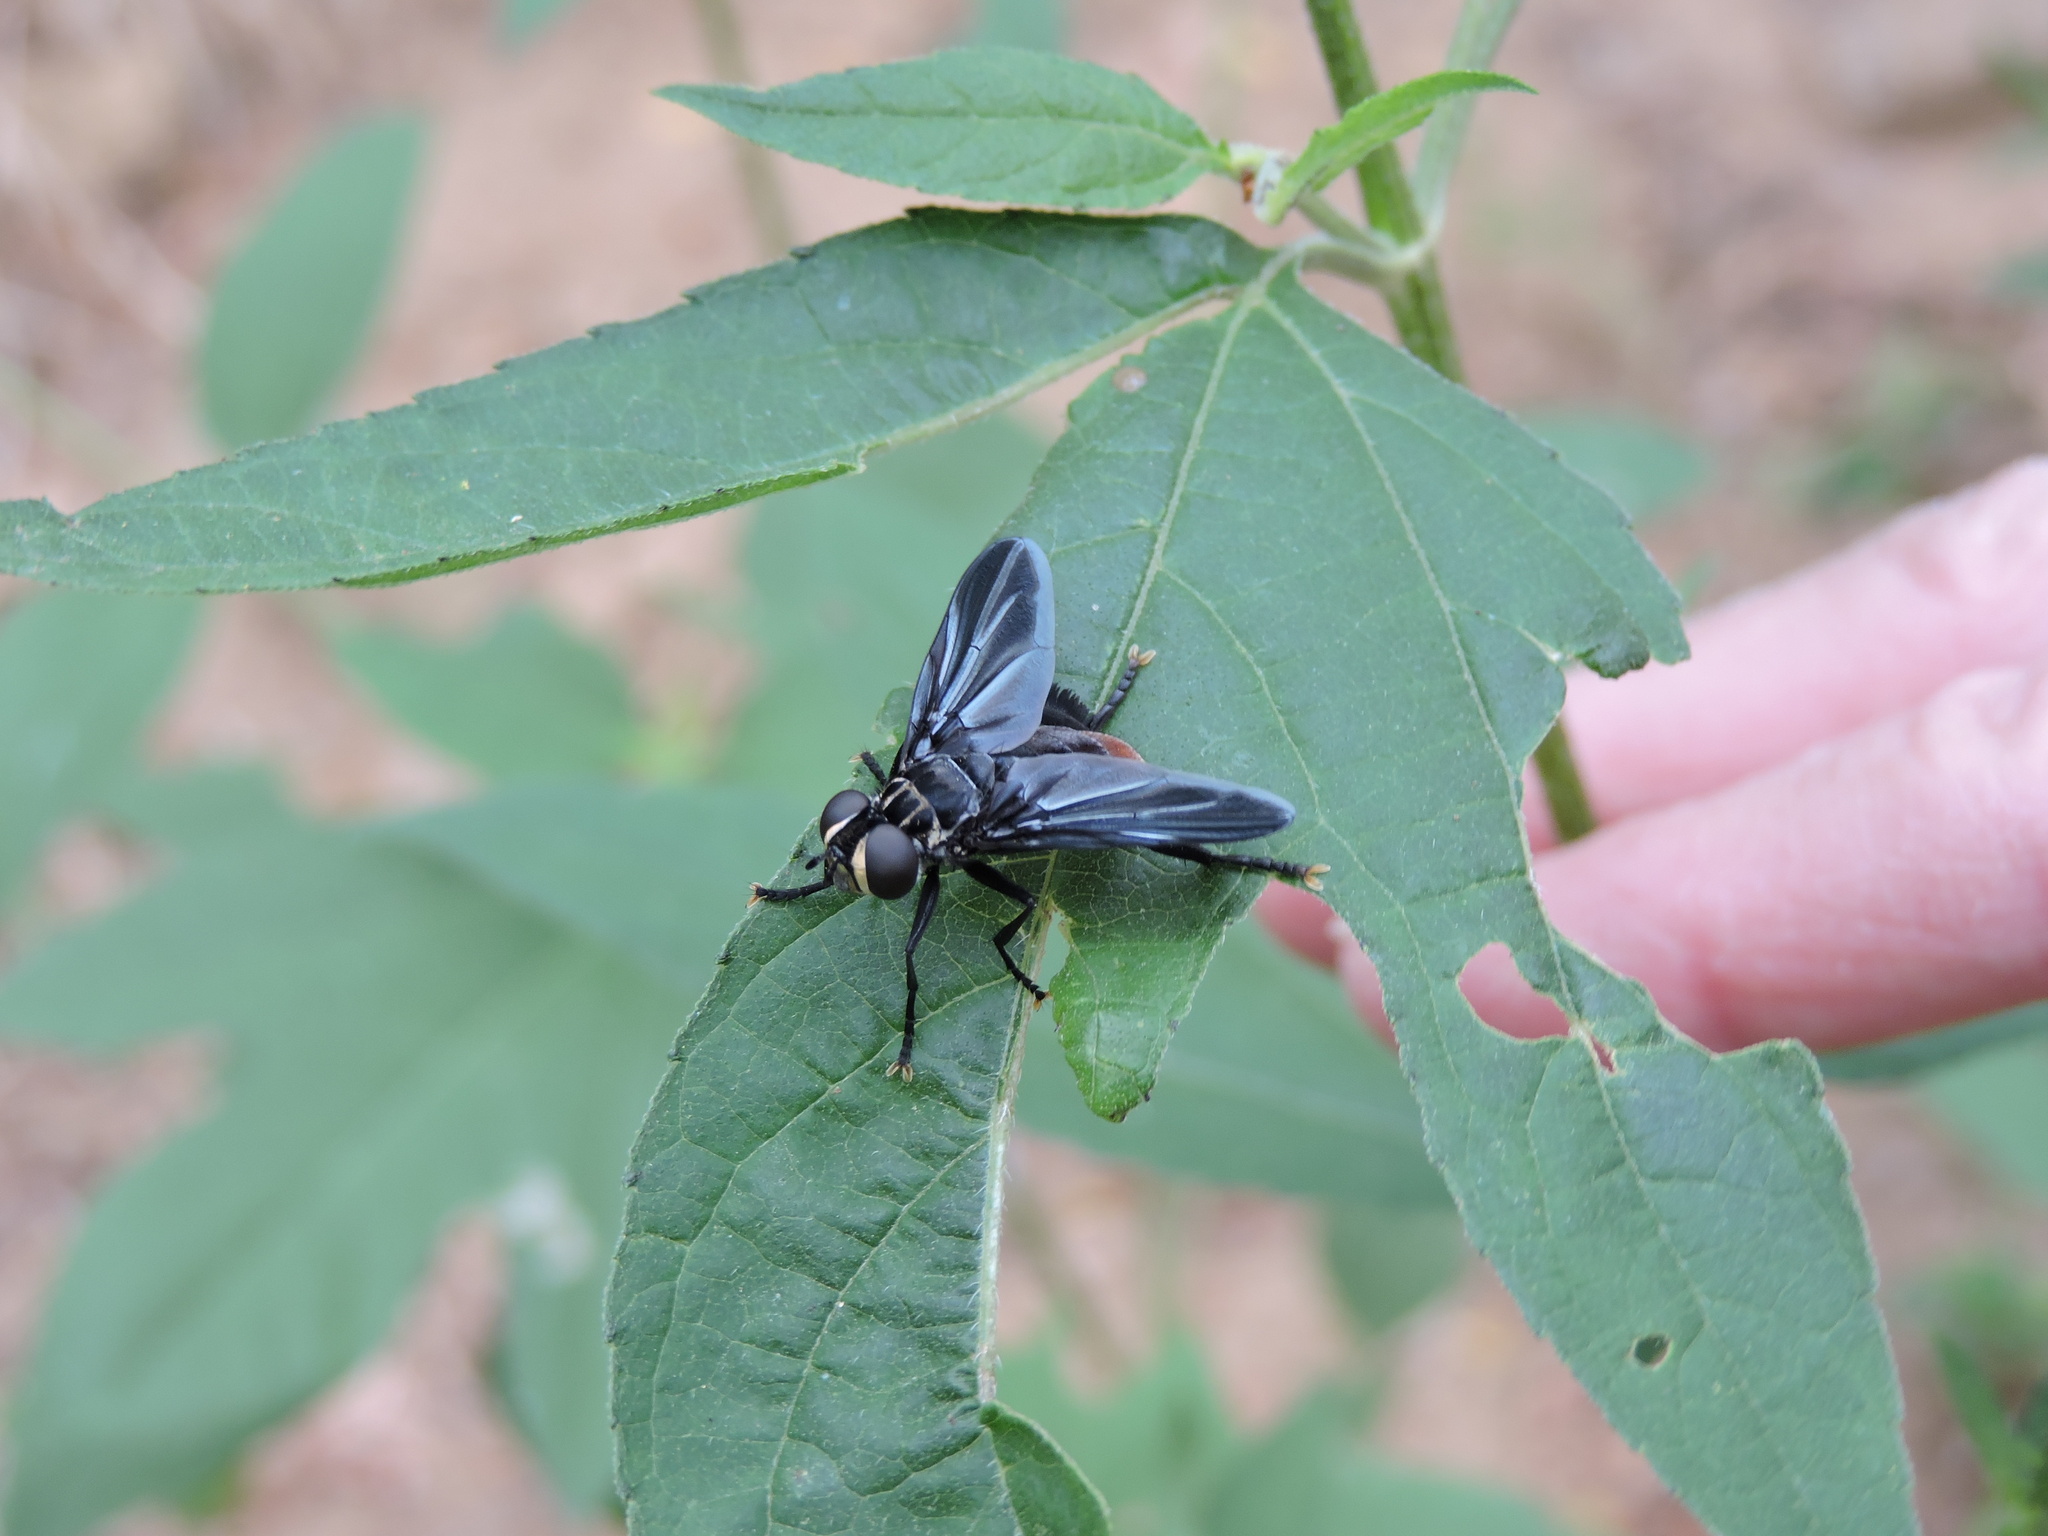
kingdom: Animalia
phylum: Arthropoda
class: Insecta
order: Diptera
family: Tachinidae
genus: Trichopoda
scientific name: Trichopoda lanipes
